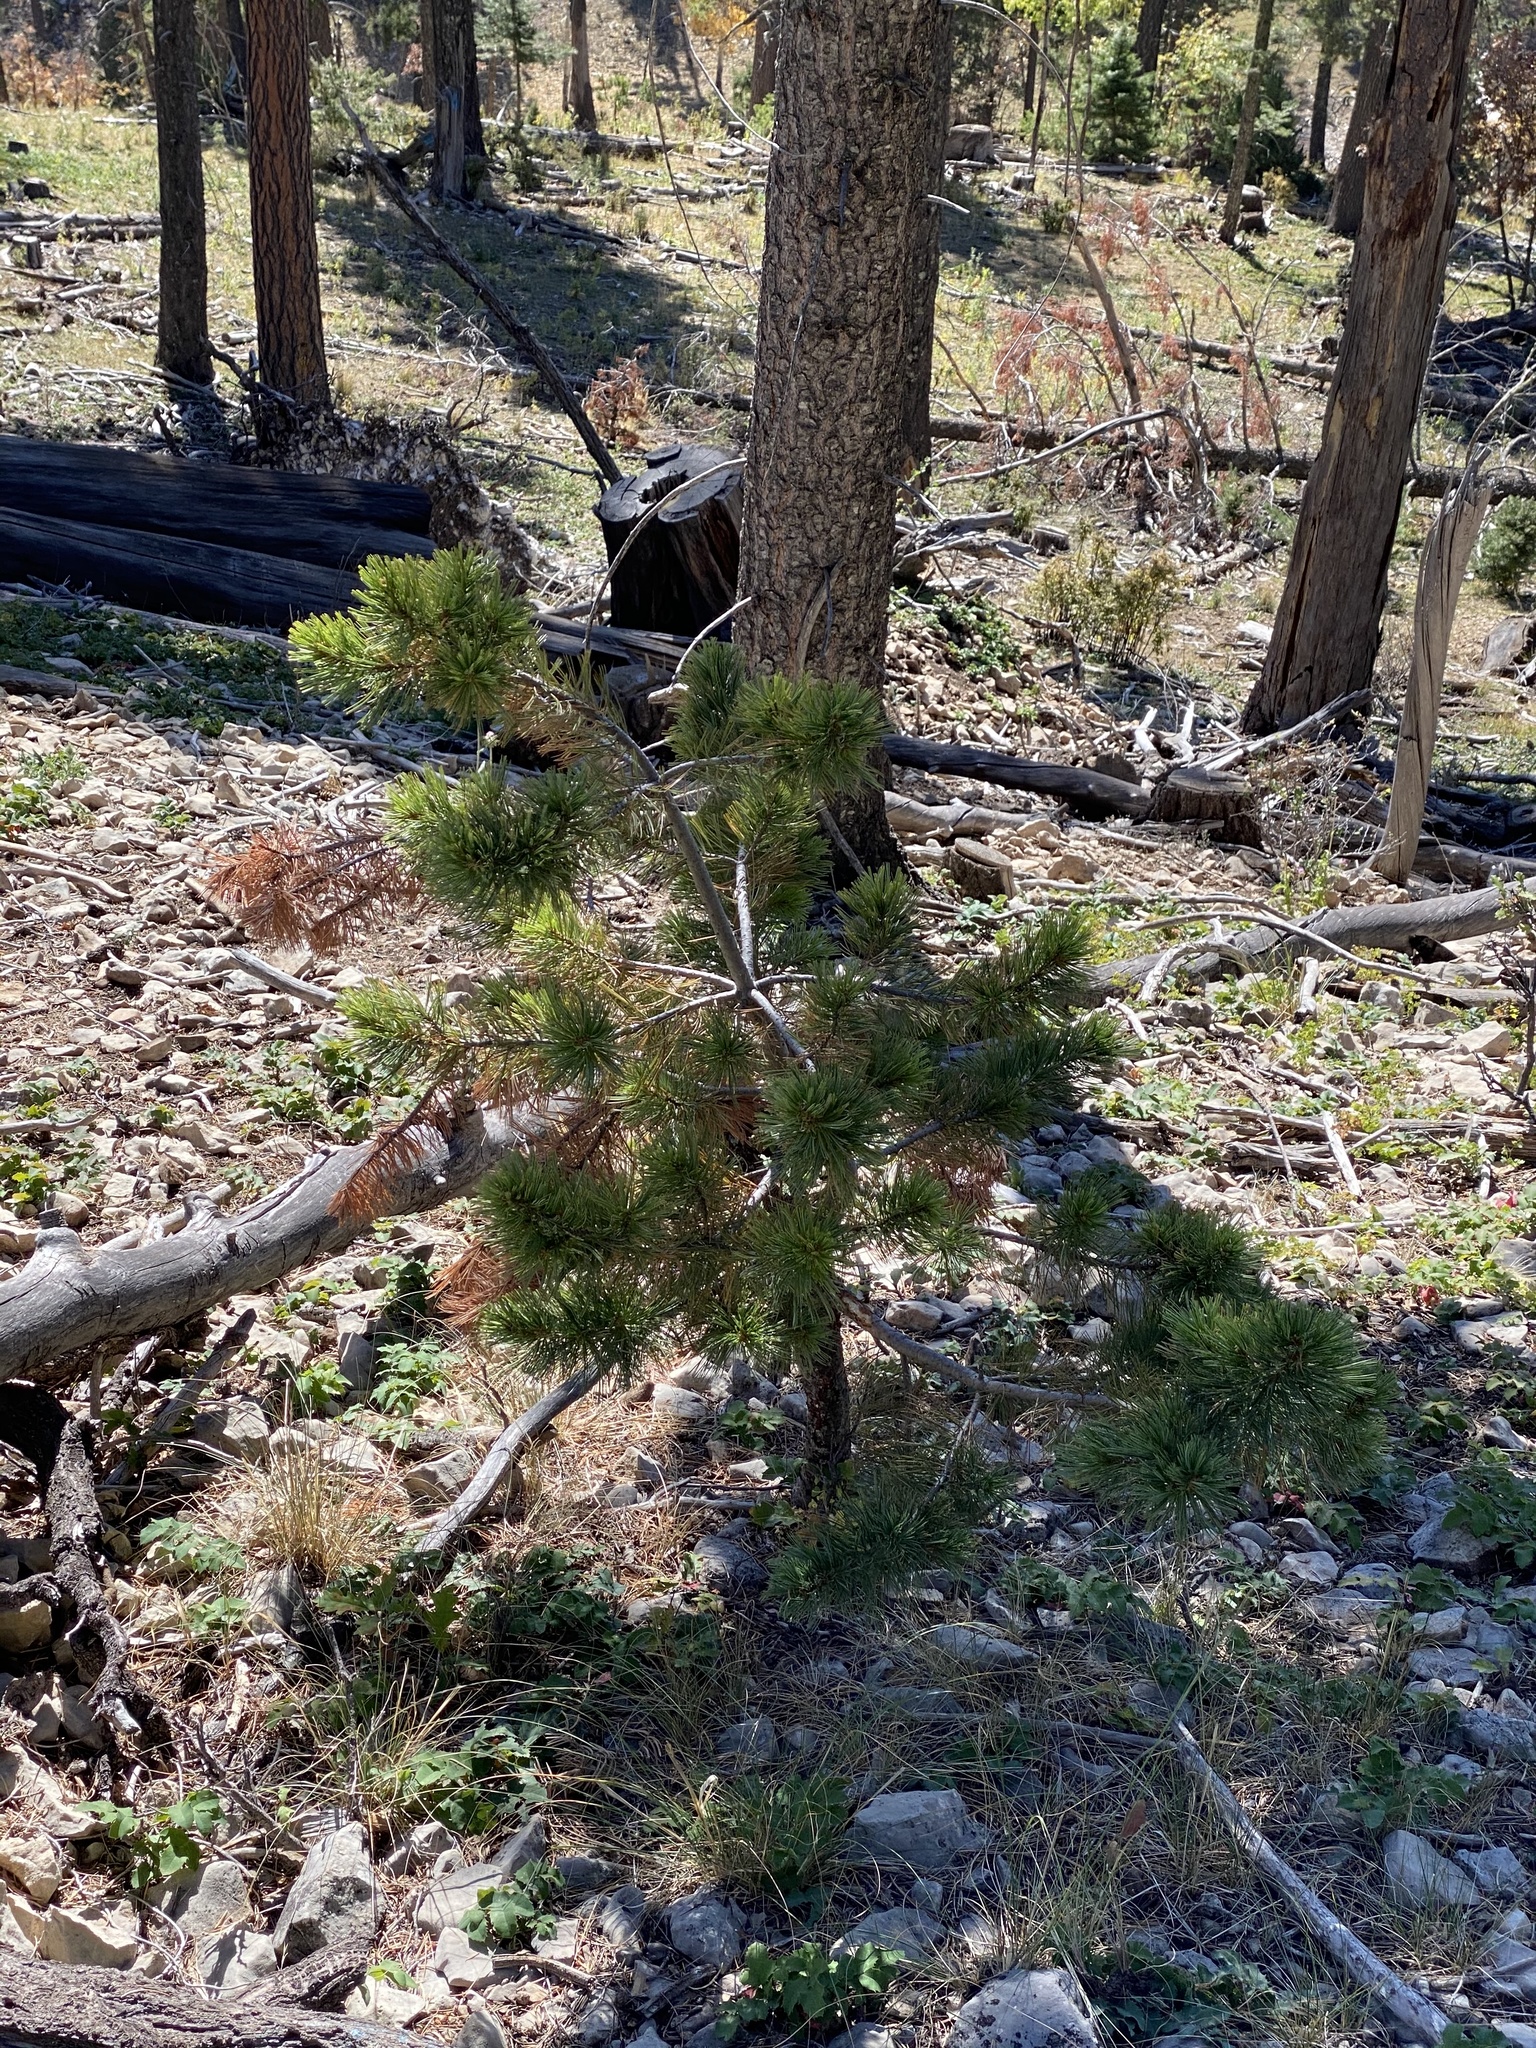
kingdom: Plantae
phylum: Tracheophyta
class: Pinopsida
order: Pinales
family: Pinaceae
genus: Pinus
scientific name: Pinus strobiformis
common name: Southwestern white pine
